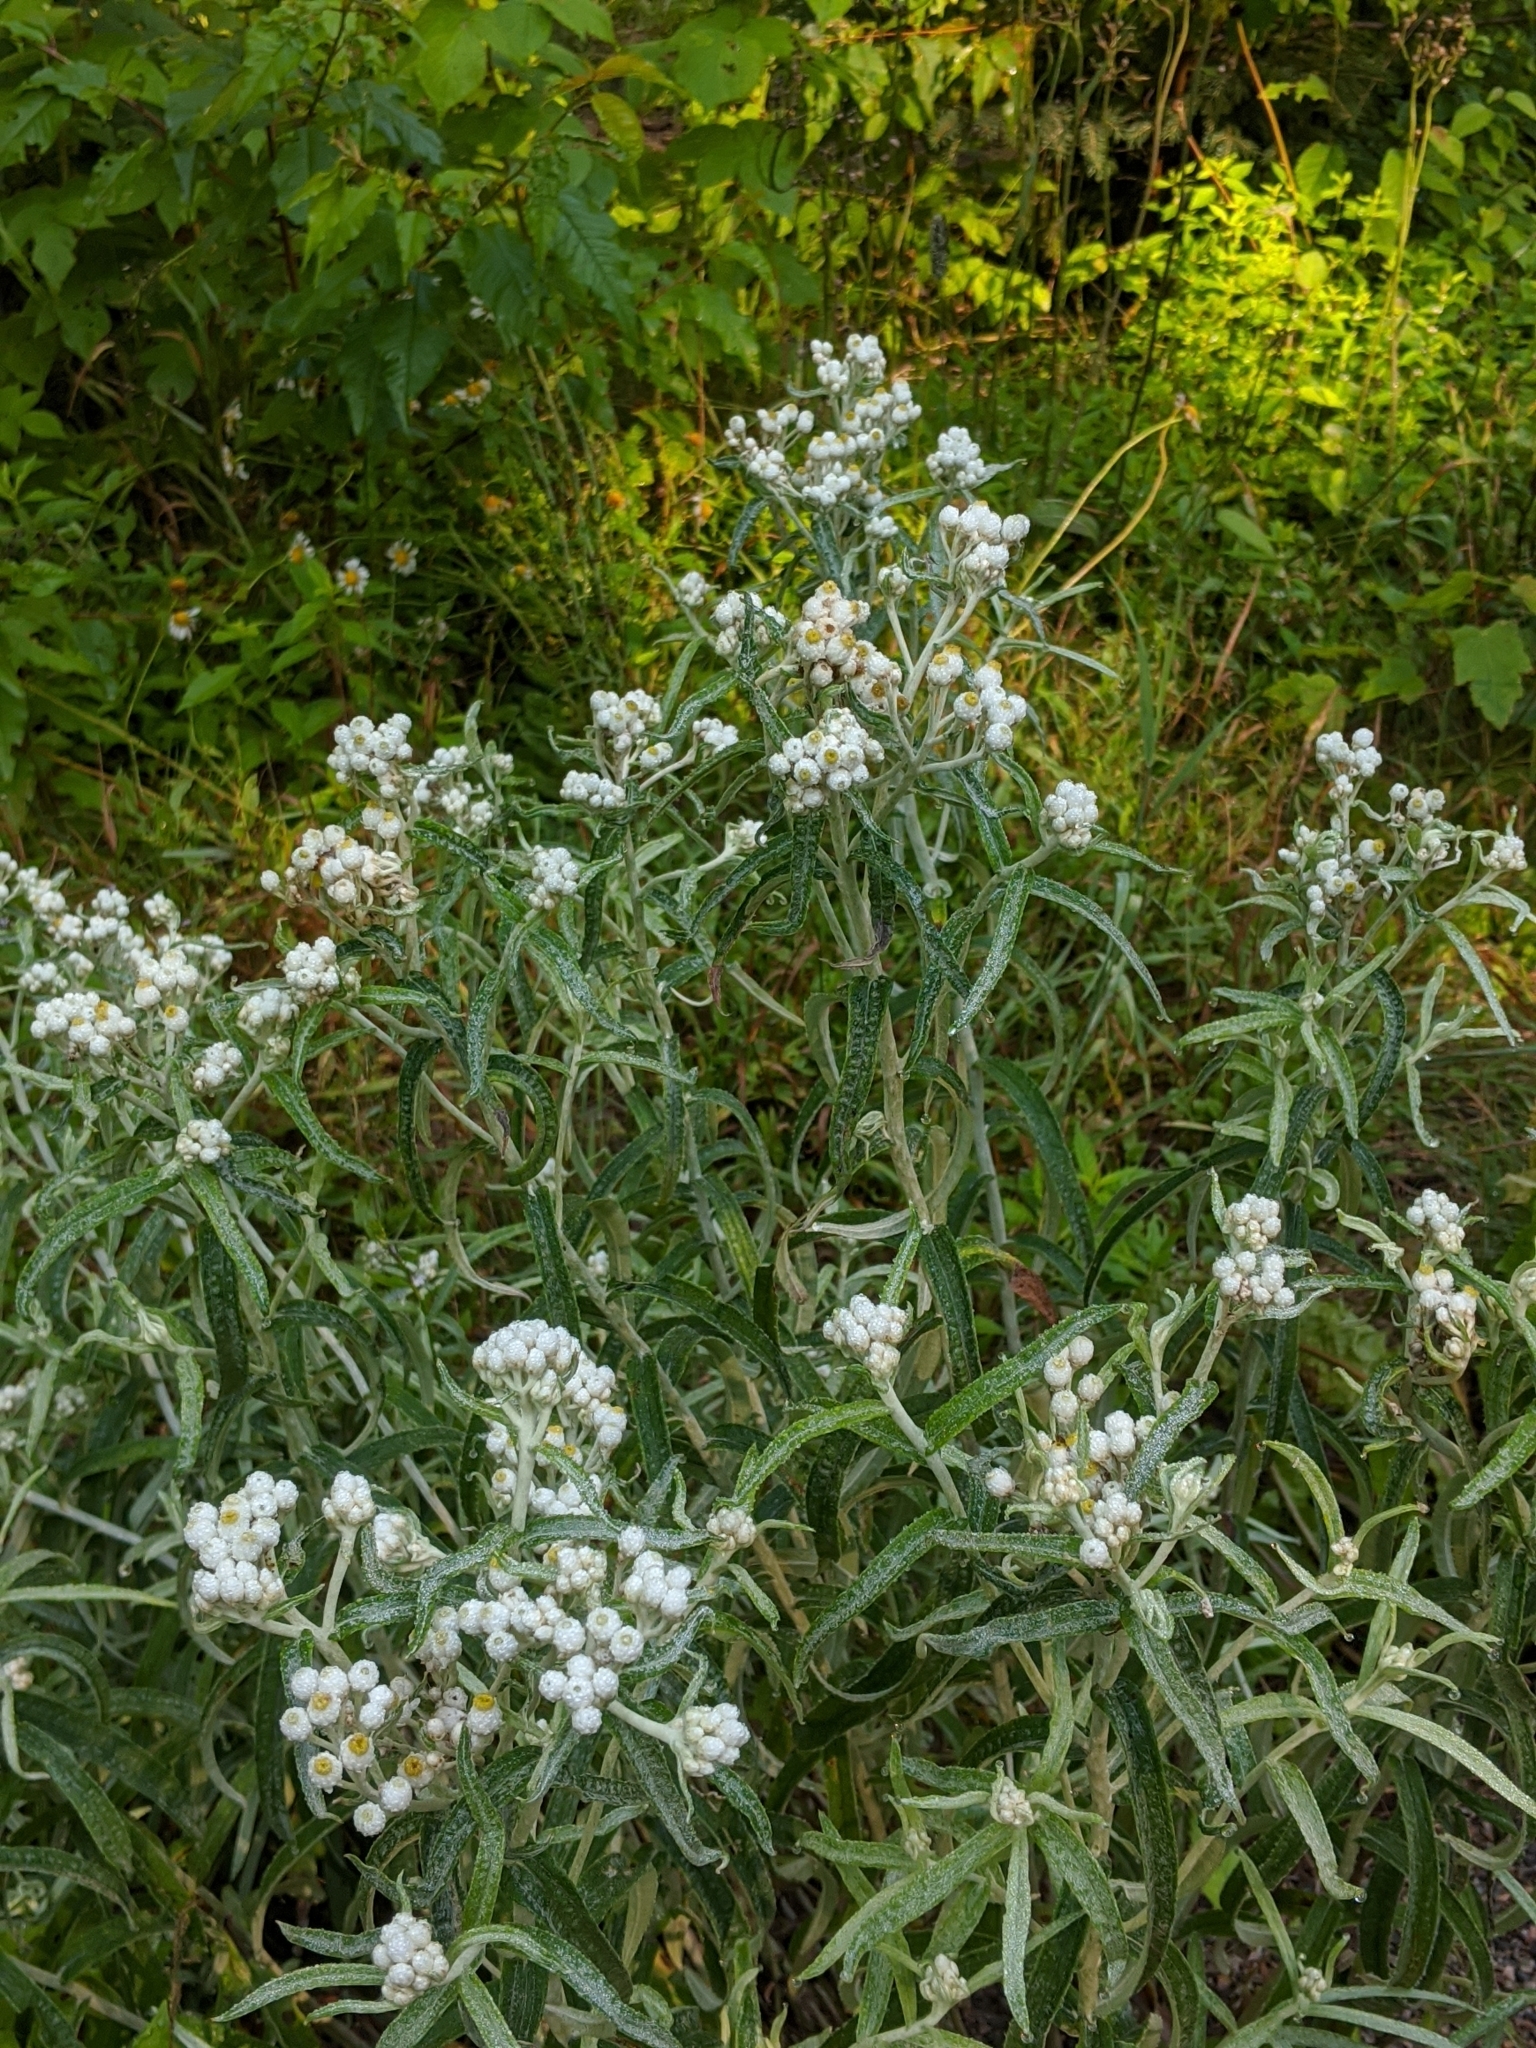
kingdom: Plantae
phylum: Tracheophyta
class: Magnoliopsida
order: Asterales
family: Asteraceae
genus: Anaphalis
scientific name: Anaphalis margaritacea
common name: Pearly everlasting
